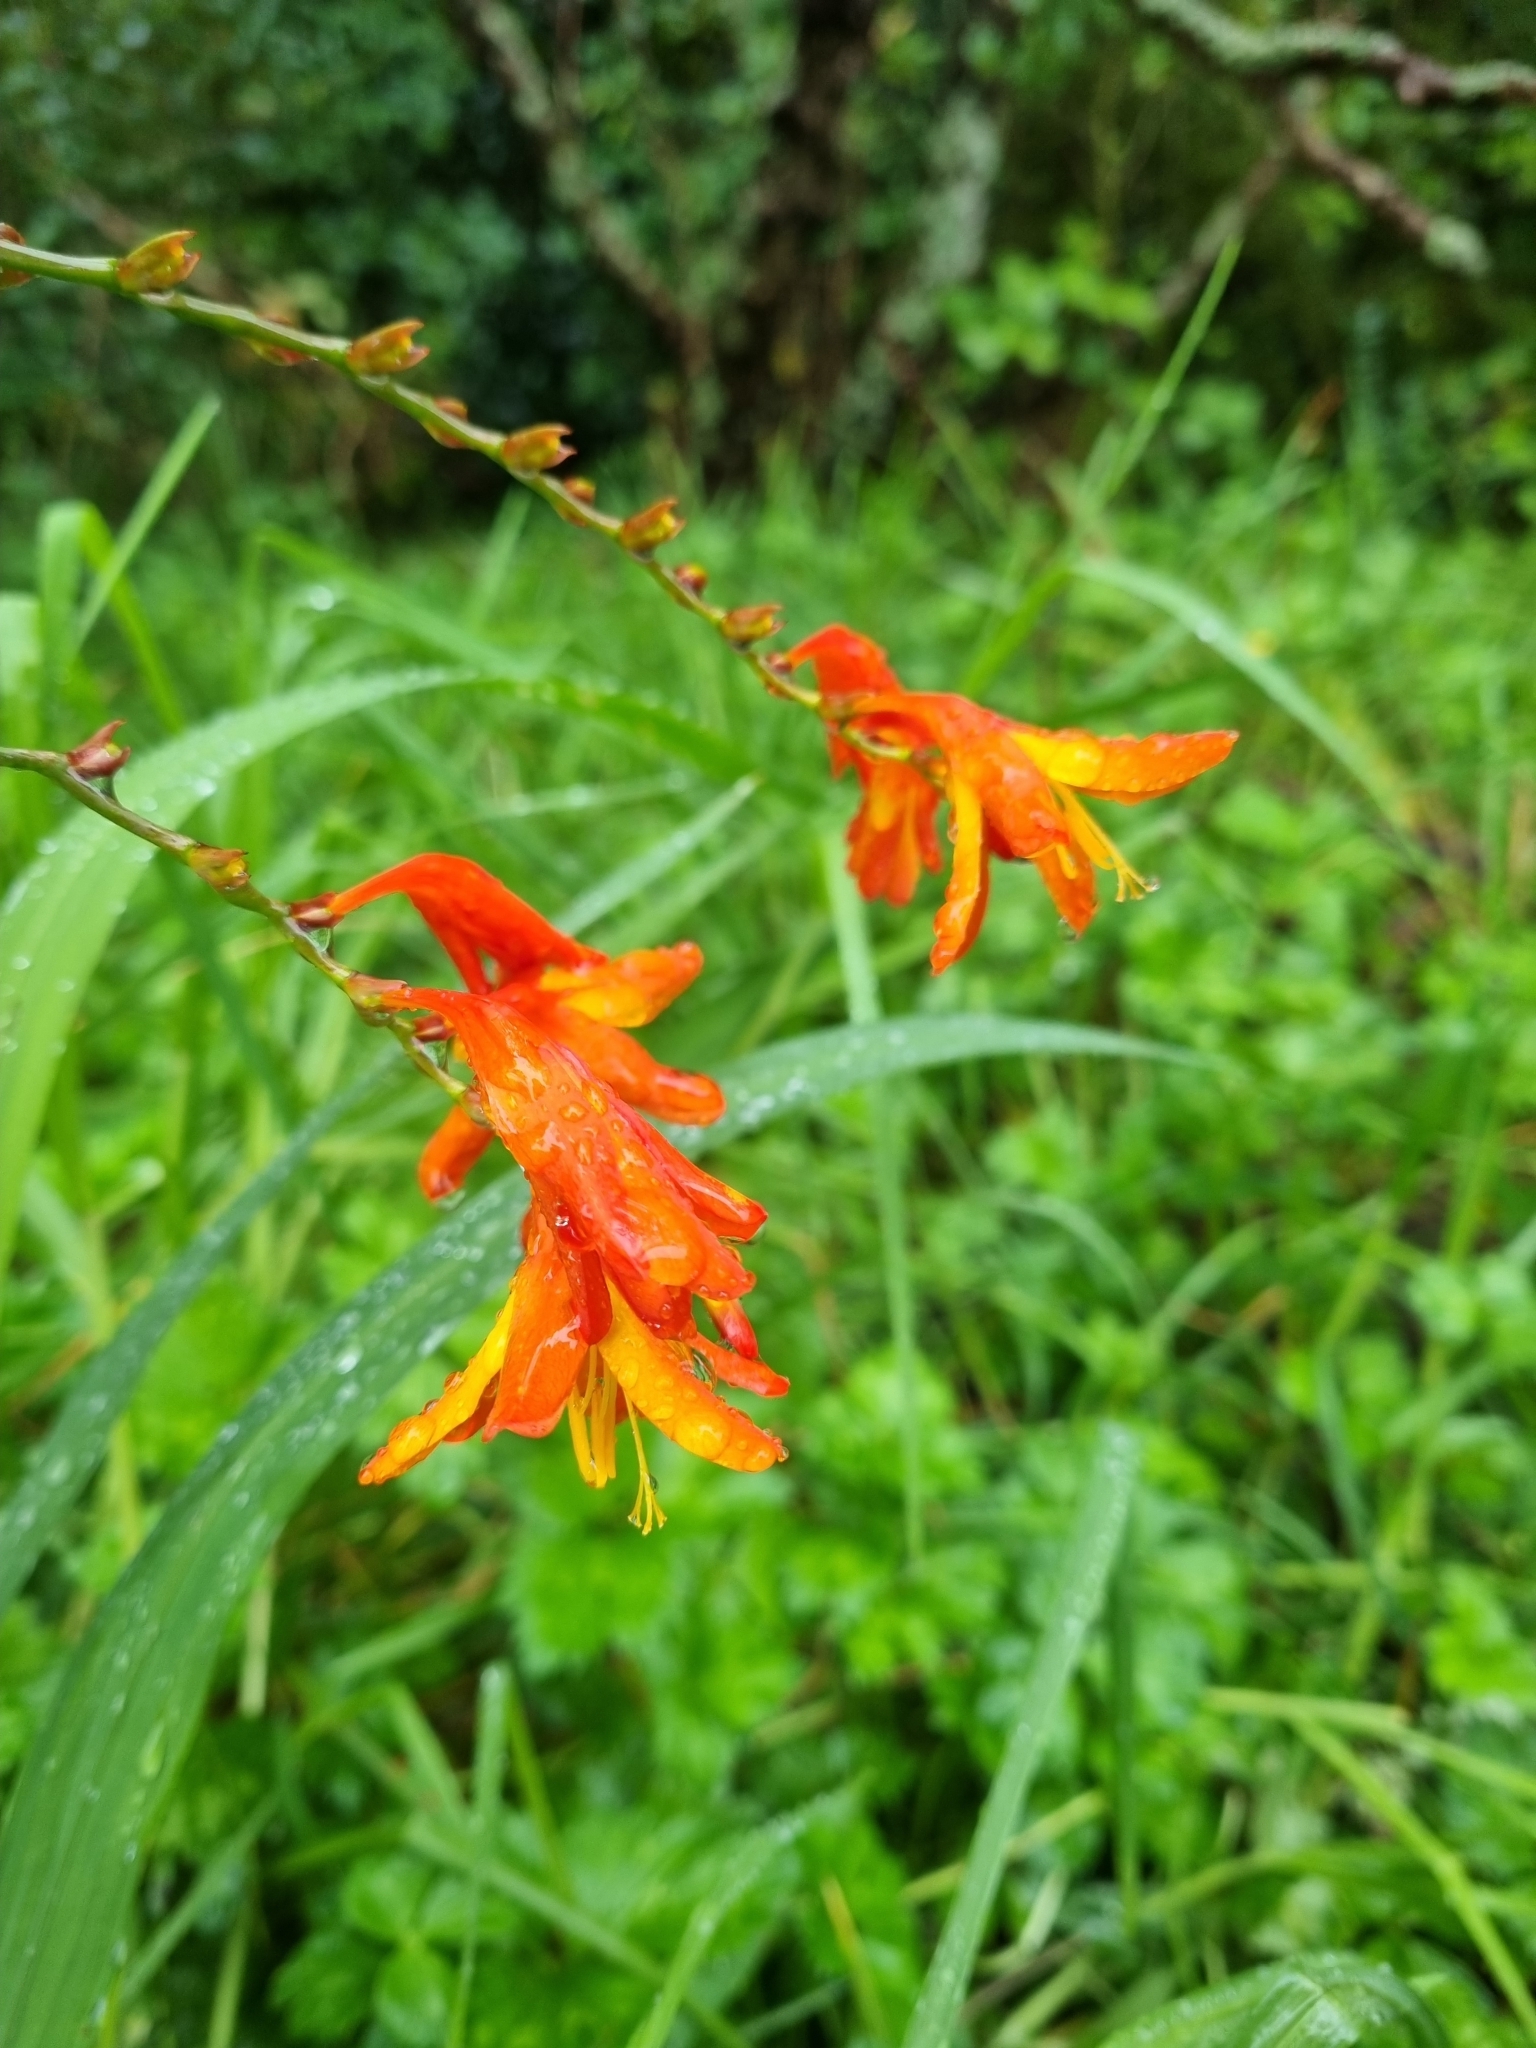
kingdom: Plantae
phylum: Tracheophyta
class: Liliopsida
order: Asparagales
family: Iridaceae
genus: Crocosmia
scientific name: Crocosmia crocosmiiflora
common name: Montbretia
